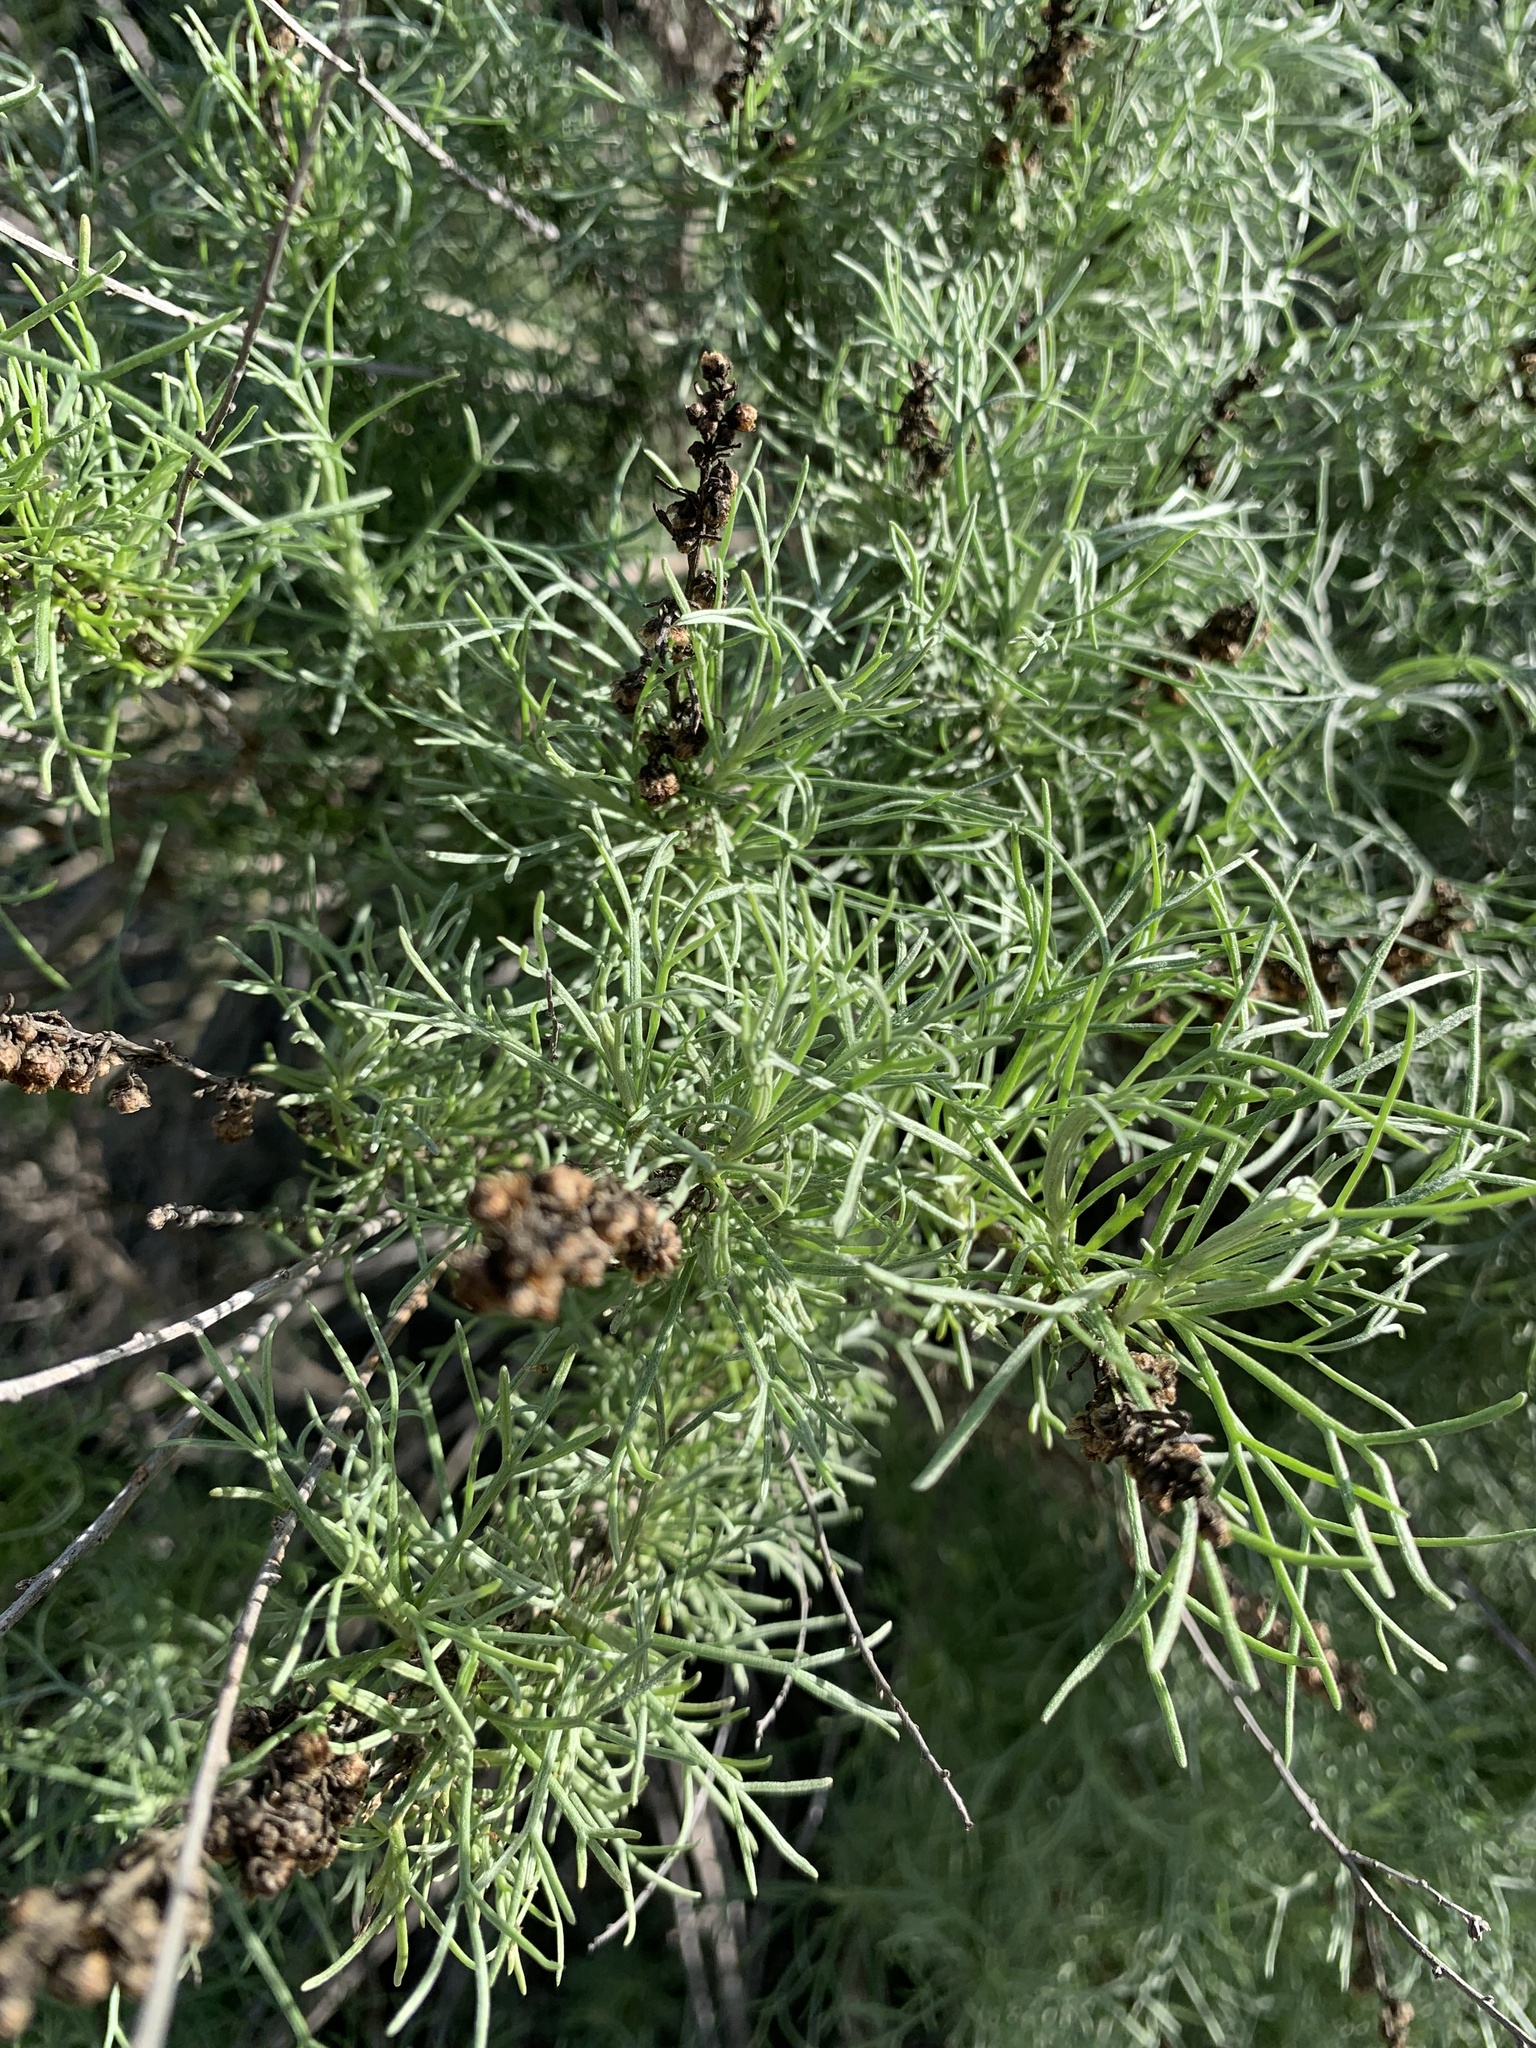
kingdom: Plantae
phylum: Tracheophyta
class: Magnoliopsida
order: Asterales
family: Asteraceae
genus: Artemisia
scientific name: Artemisia californica
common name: California sagebrush
